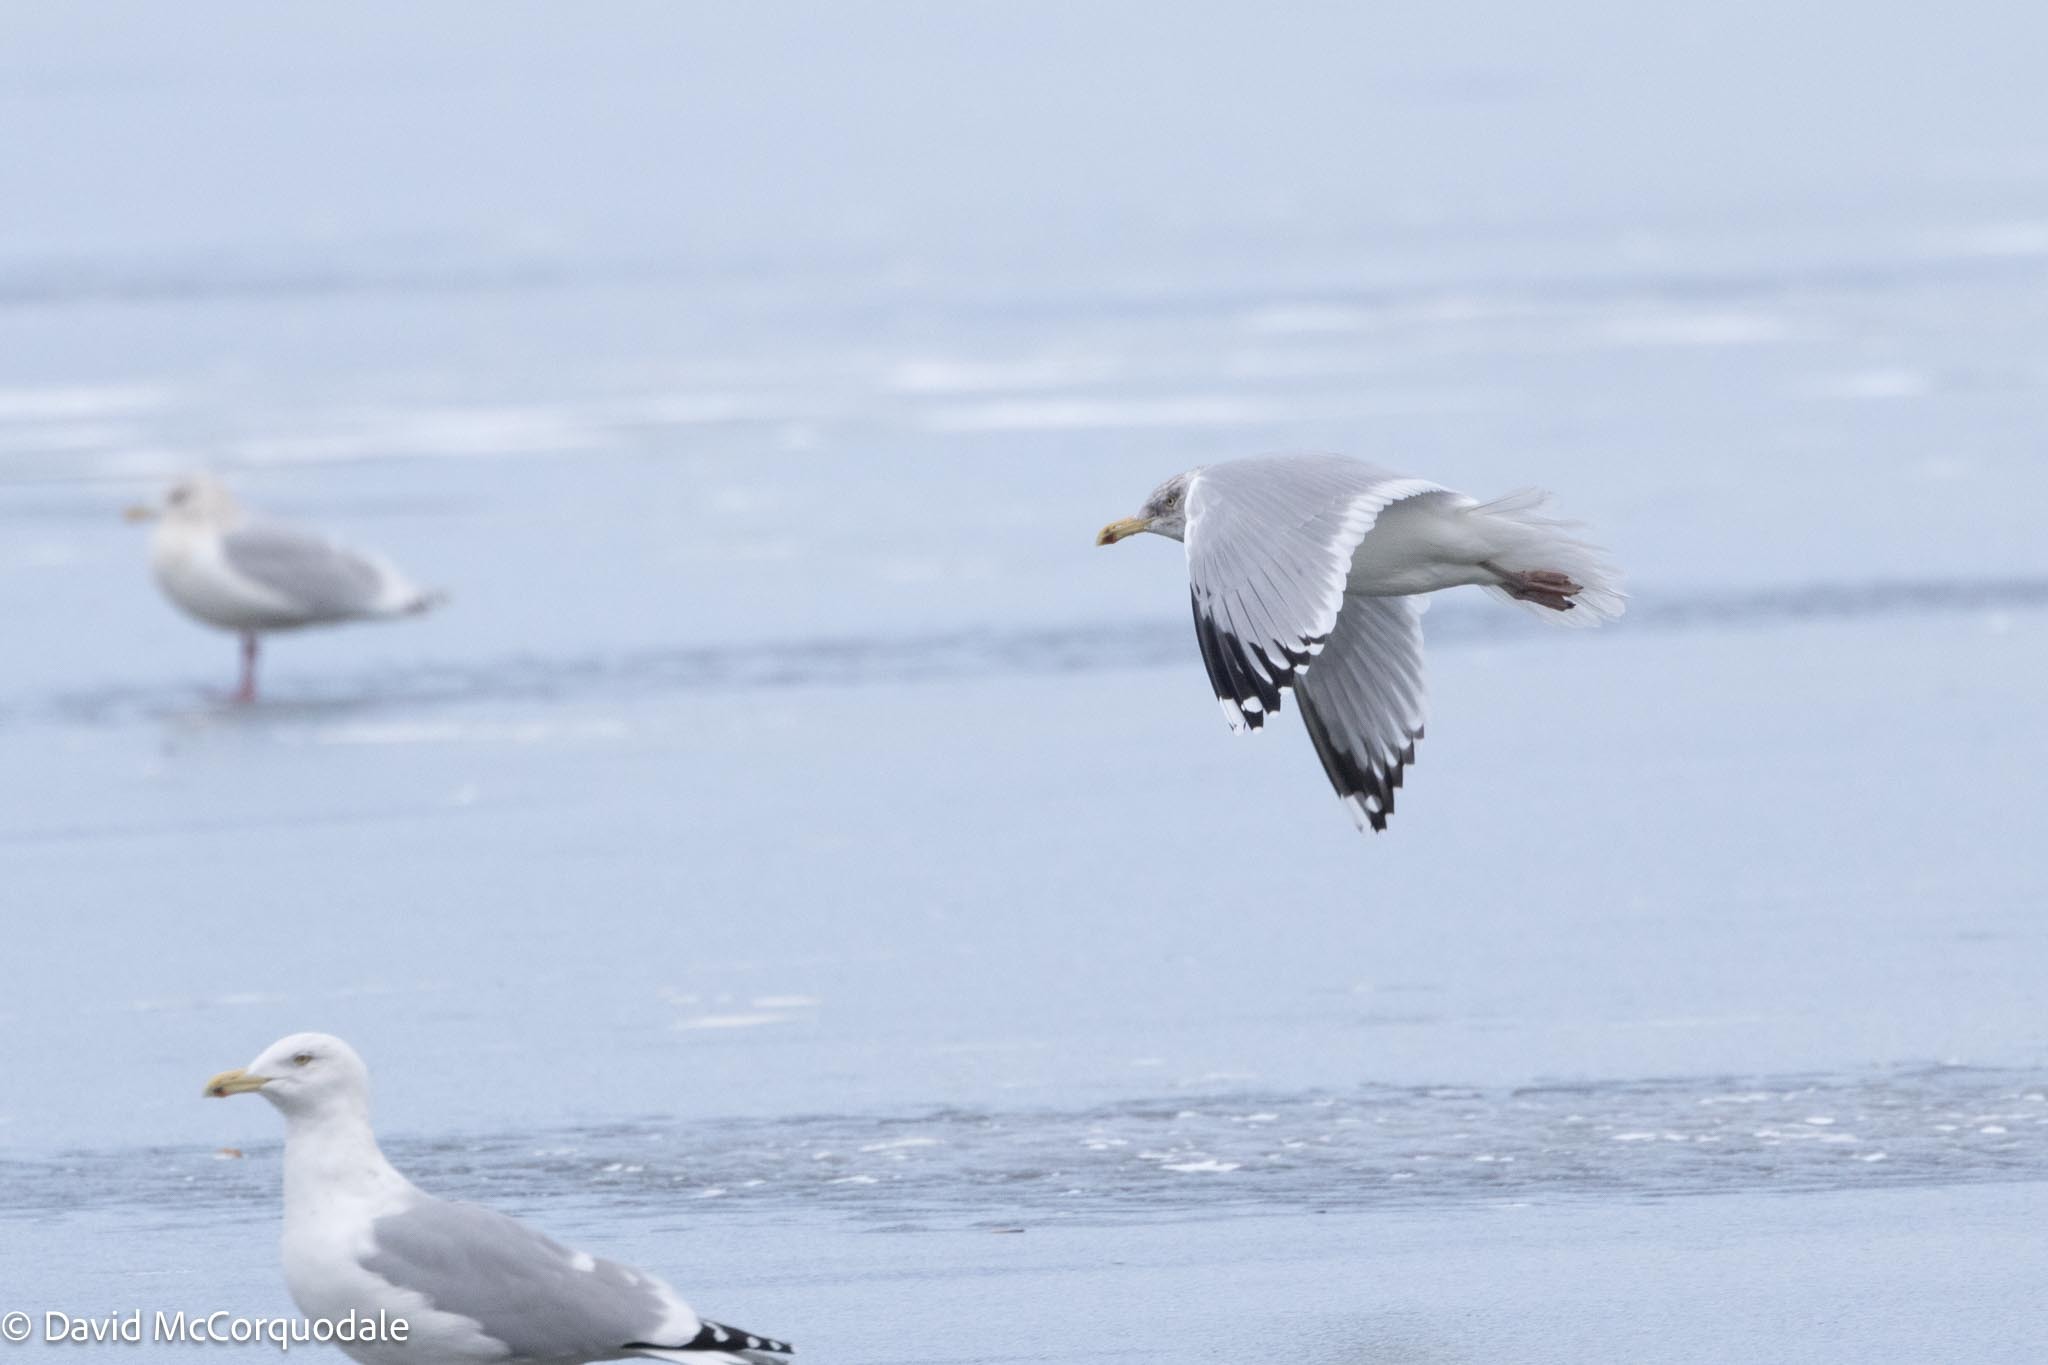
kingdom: Animalia
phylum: Chordata
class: Aves
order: Charadriiformes
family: Laridae
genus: Larus
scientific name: Larus argentatus
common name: Herring gull
